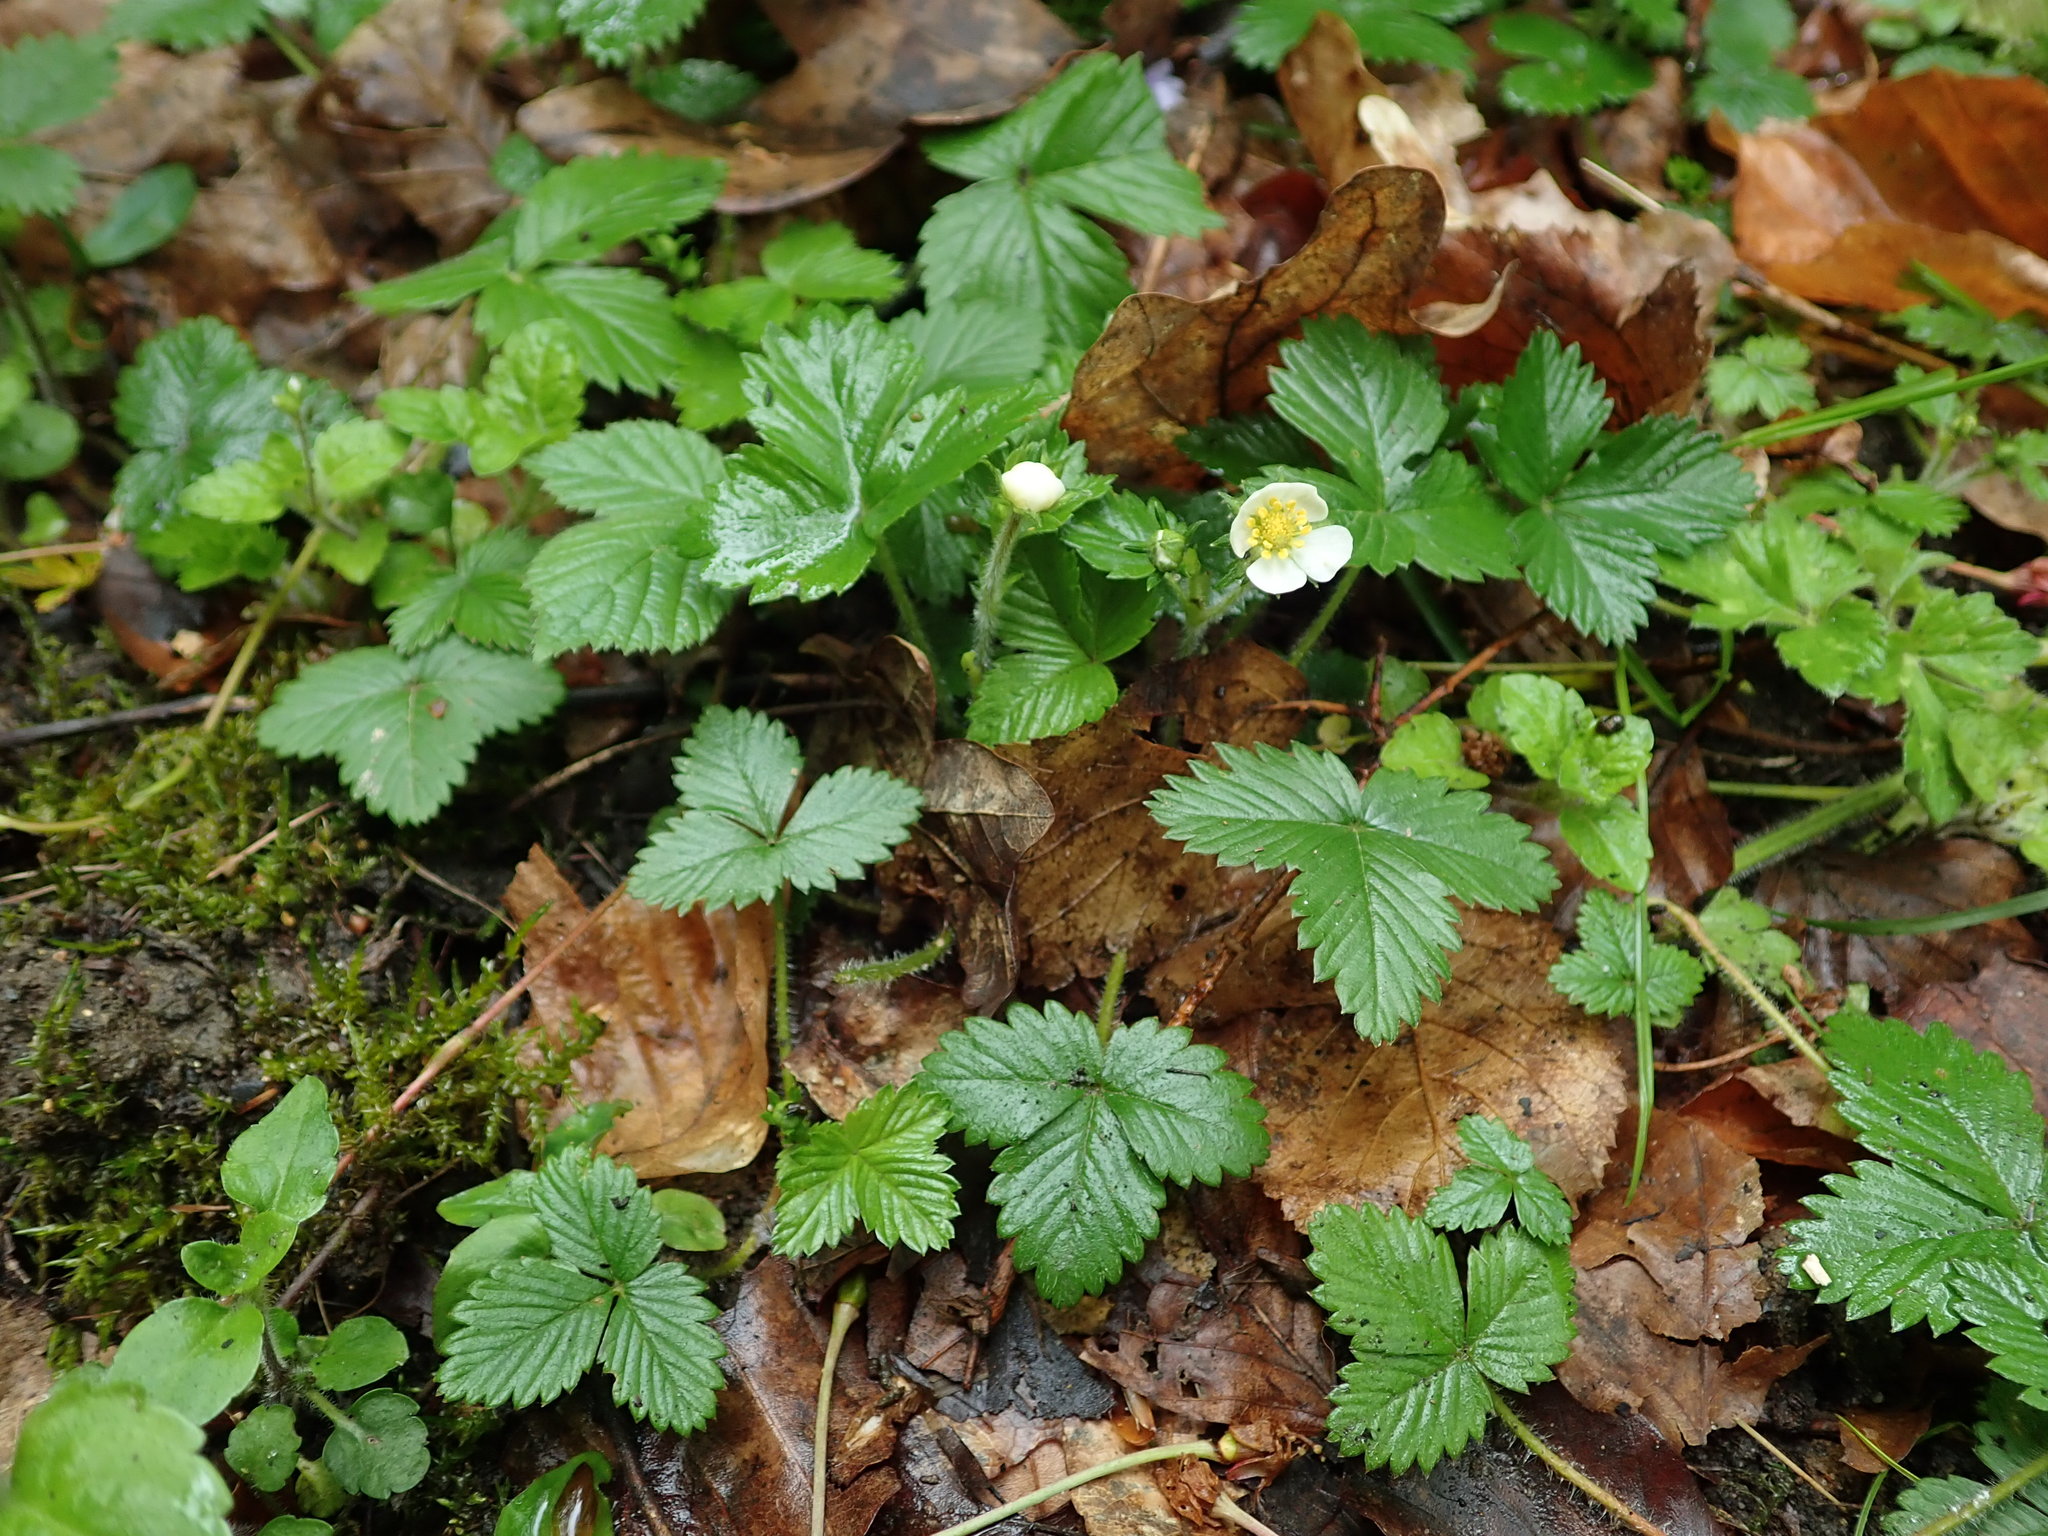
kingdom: Plantae
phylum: Tracheophyta
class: Magnoliopsida
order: Rosales
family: Rosaceae
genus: Fragaria
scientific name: Fragaria vesca
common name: Wild strawberry
